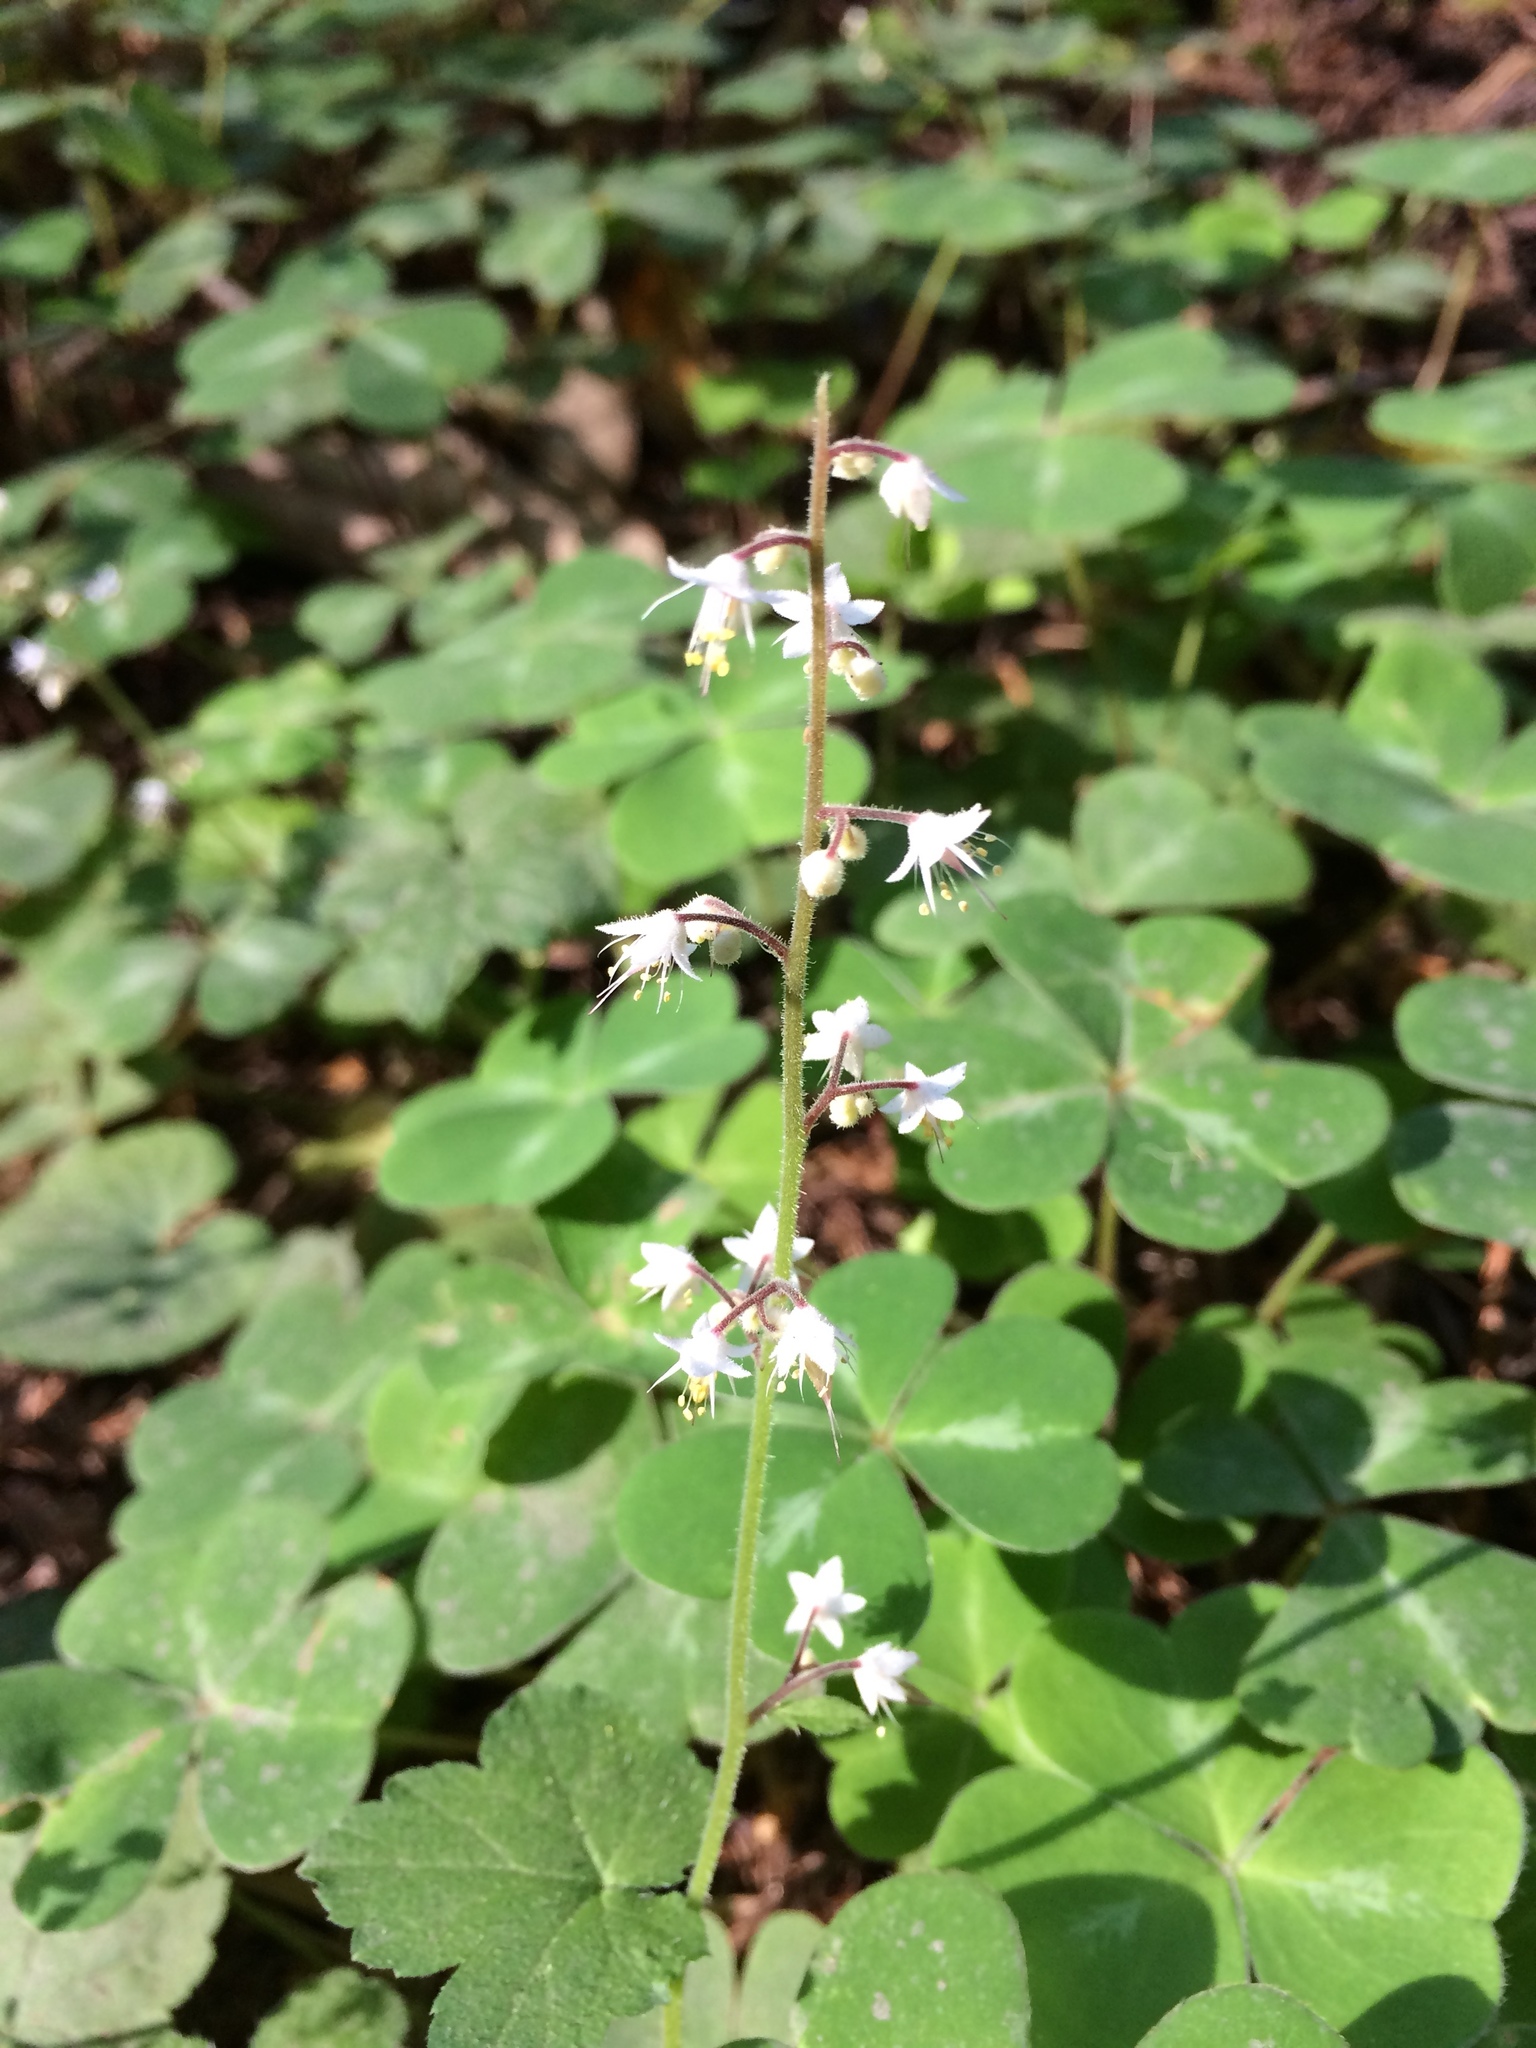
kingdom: Plantae
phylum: Tracheophyta
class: Magnoliopsida
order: Saxifragales
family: Saxifragaceae
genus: Tiarella
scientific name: Tiarella trifoliata
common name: Sugar-scoop
